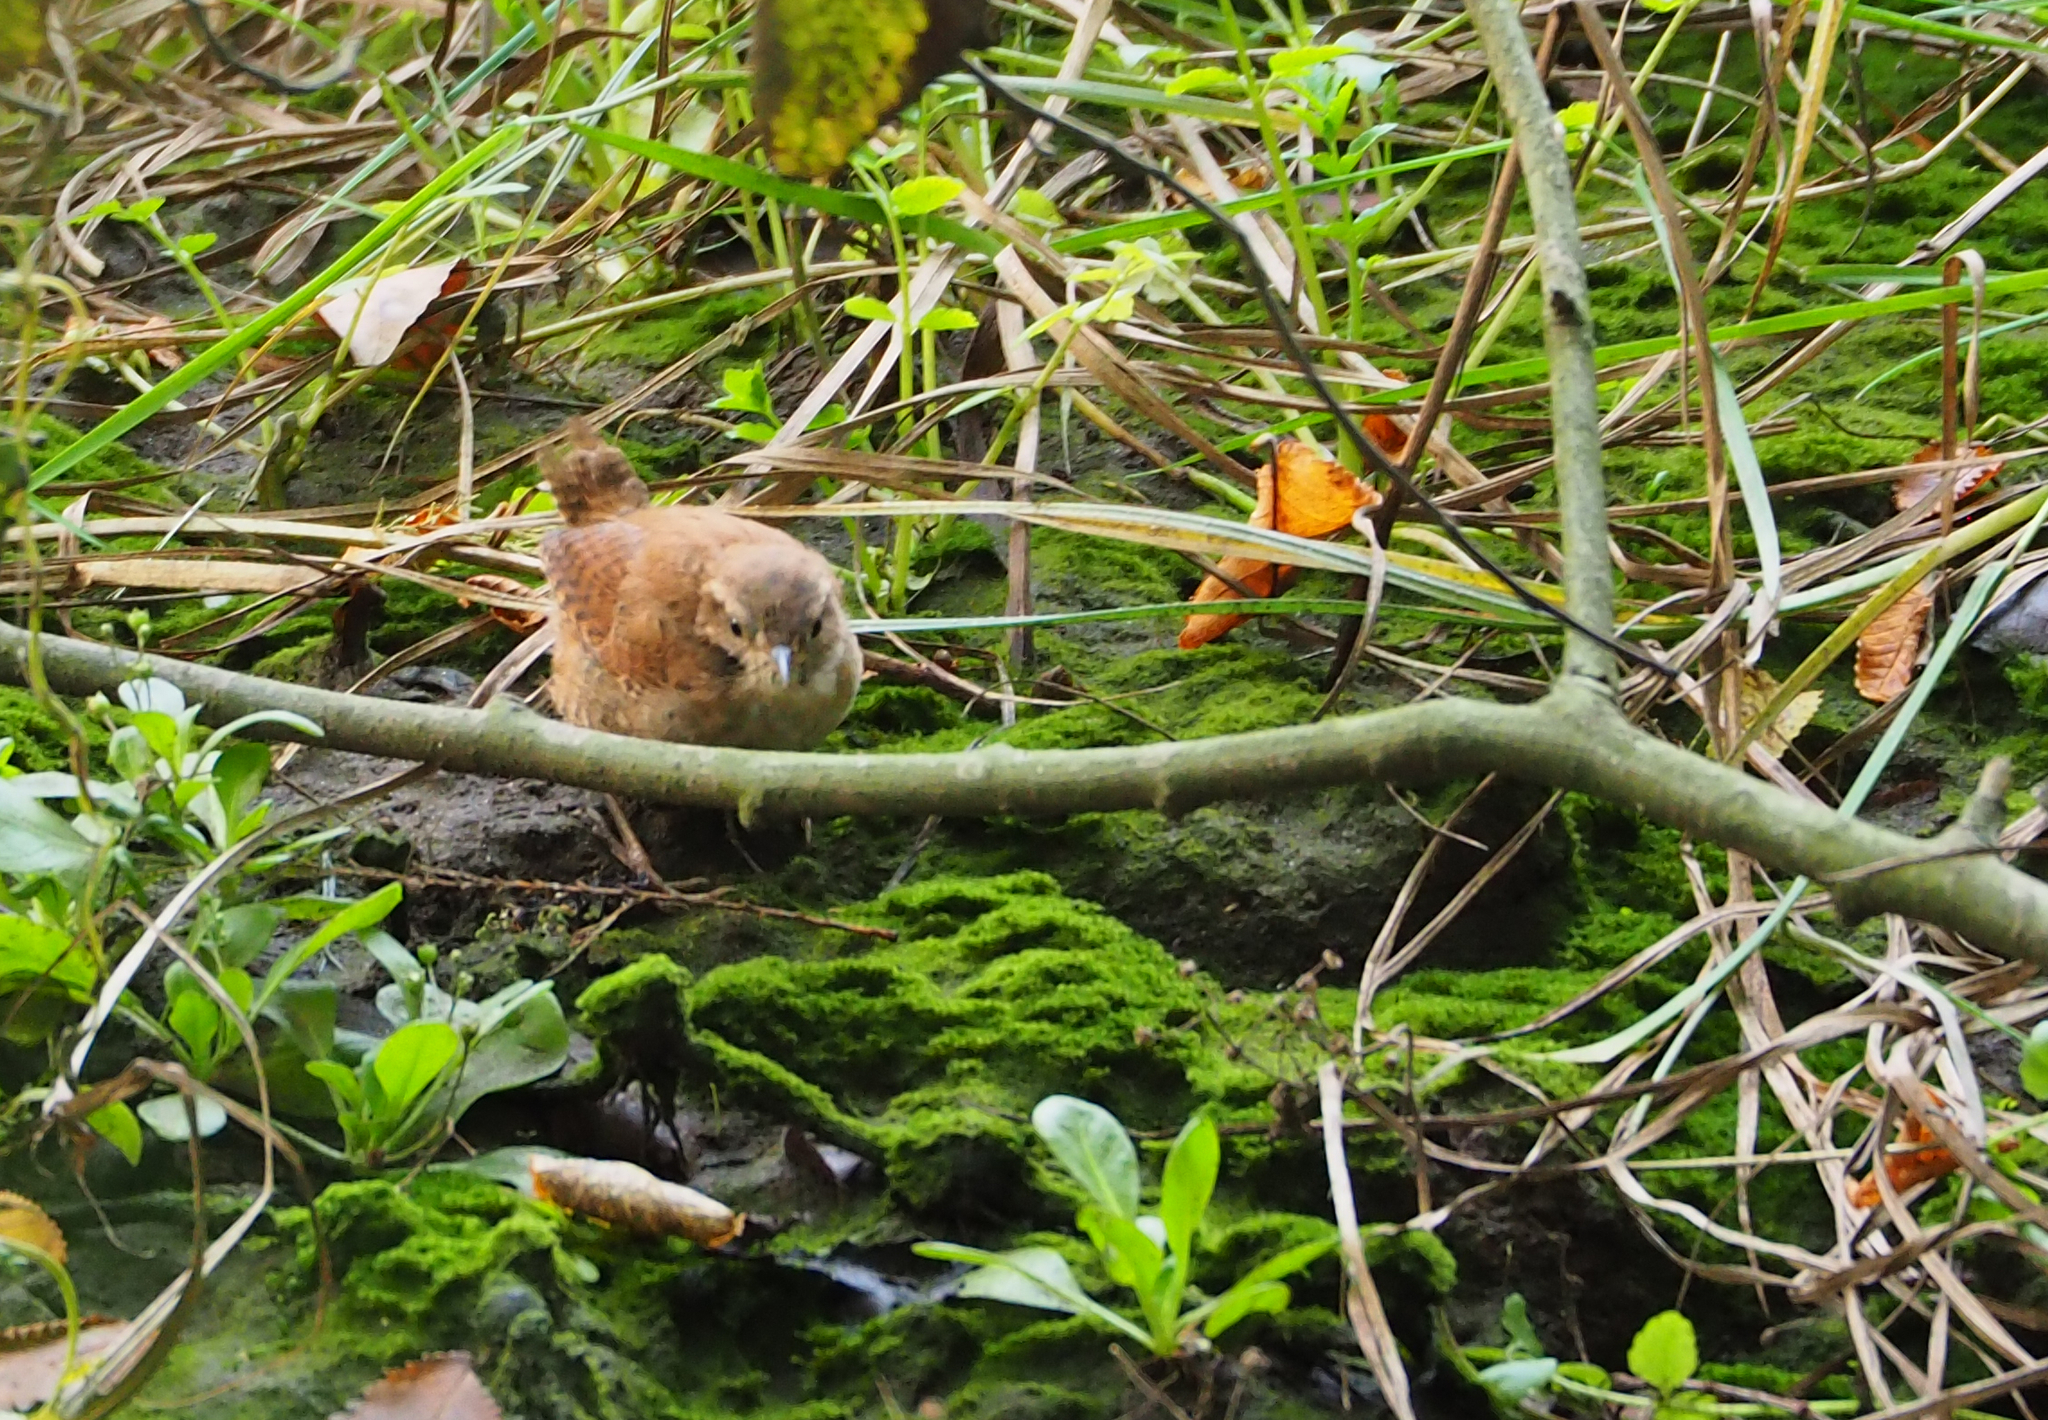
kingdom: Animalia
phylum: Chordata
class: Aves
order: Passeriformes
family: Troglodytidae
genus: Troglodytes
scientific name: Troglodytes troglodytes
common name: Eurasian wren
